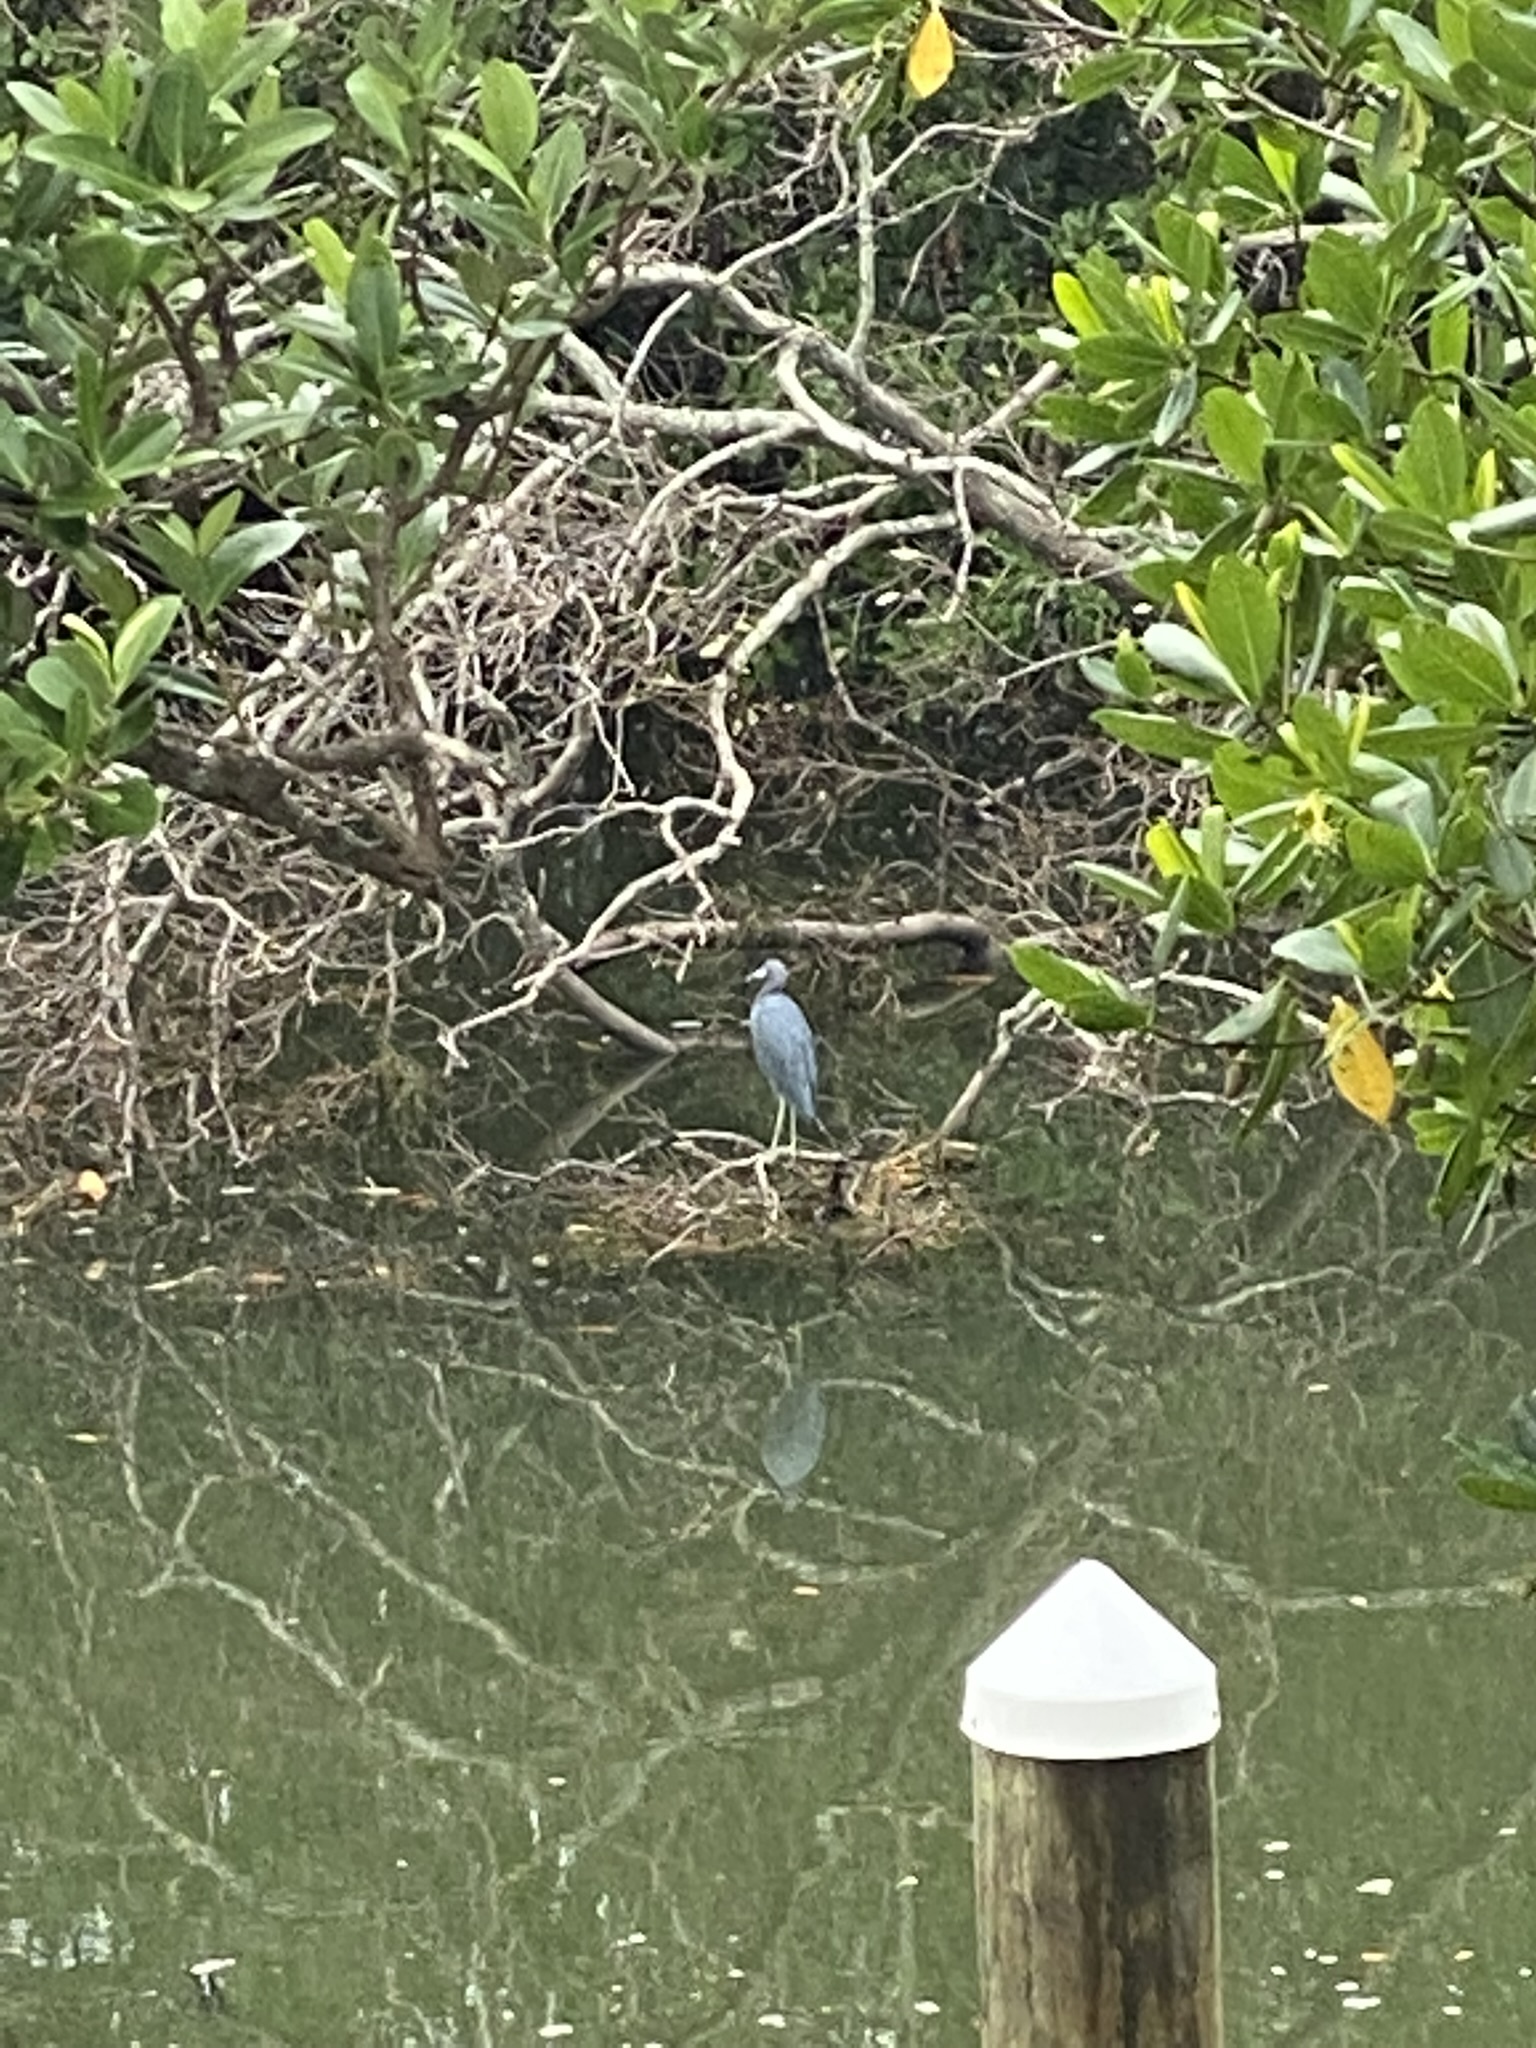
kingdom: Animalia
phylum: Chordata
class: Aves
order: Pelecaniformes
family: Ardeidae
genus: Egretta
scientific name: Egretta caerulea
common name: Little blue heron
